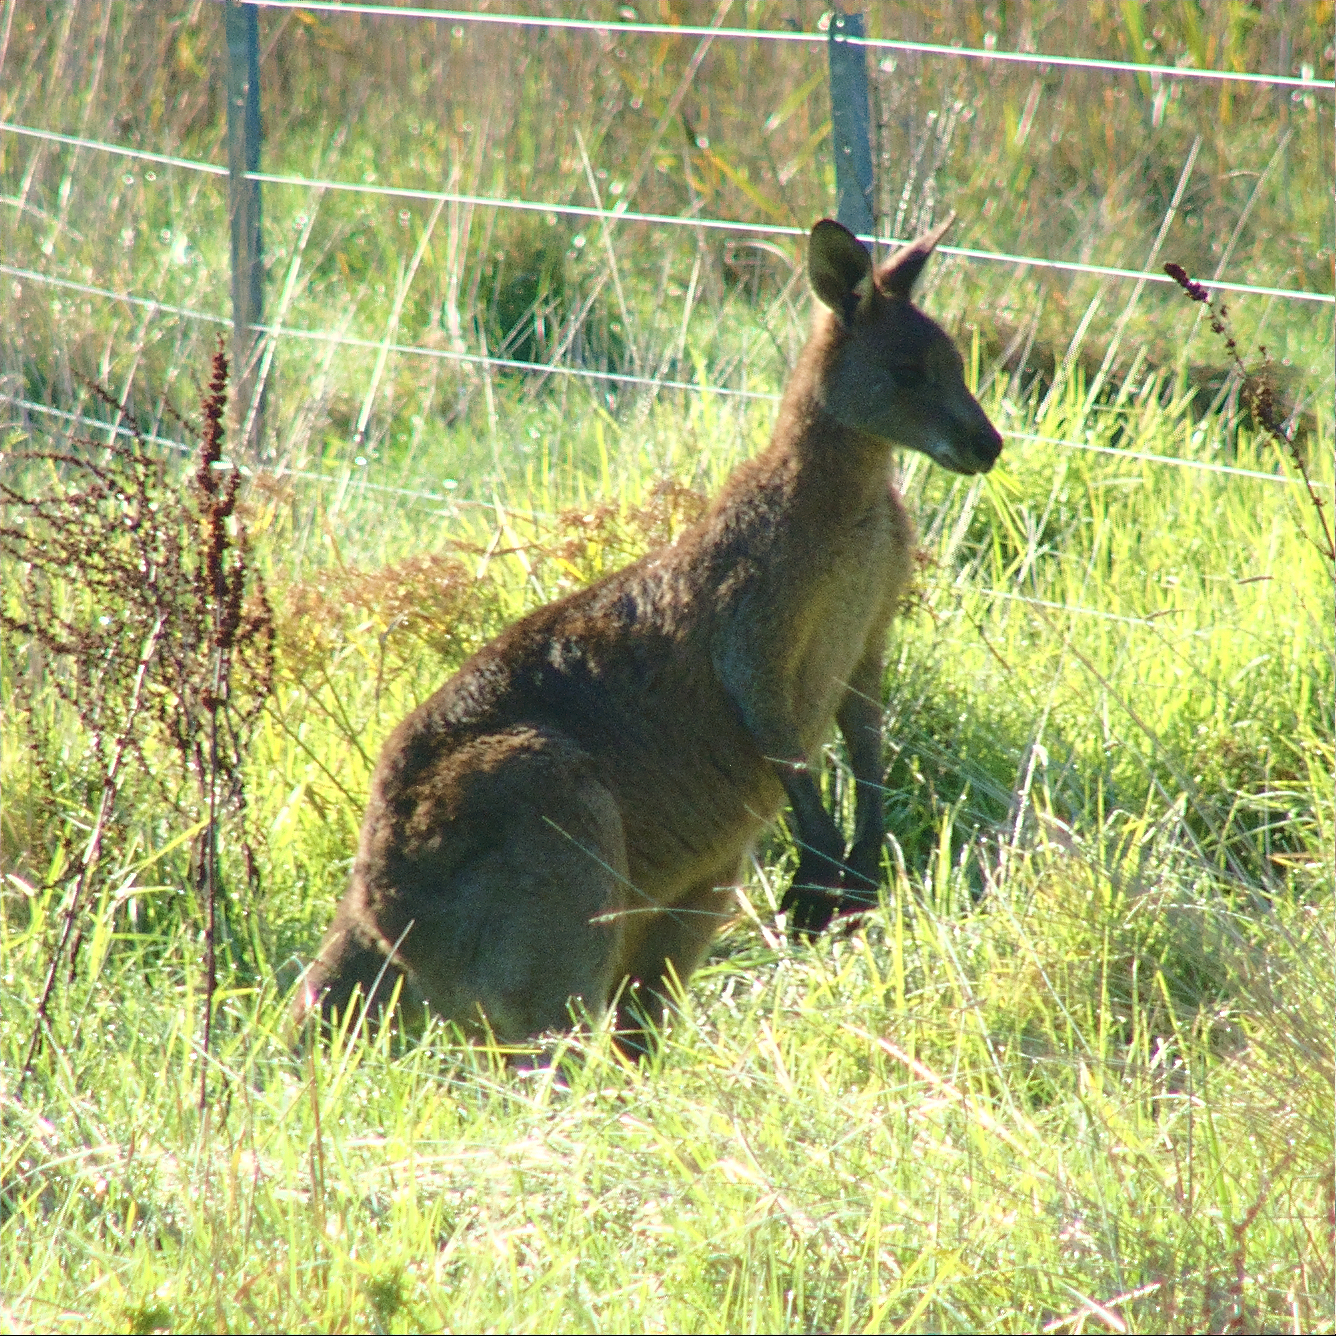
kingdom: Animalia
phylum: Chordata
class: Mammalia
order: Diprotodontia
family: Macropodidae
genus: Macropus
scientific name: Macropus giganteus
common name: Eastern grey kangaroo
